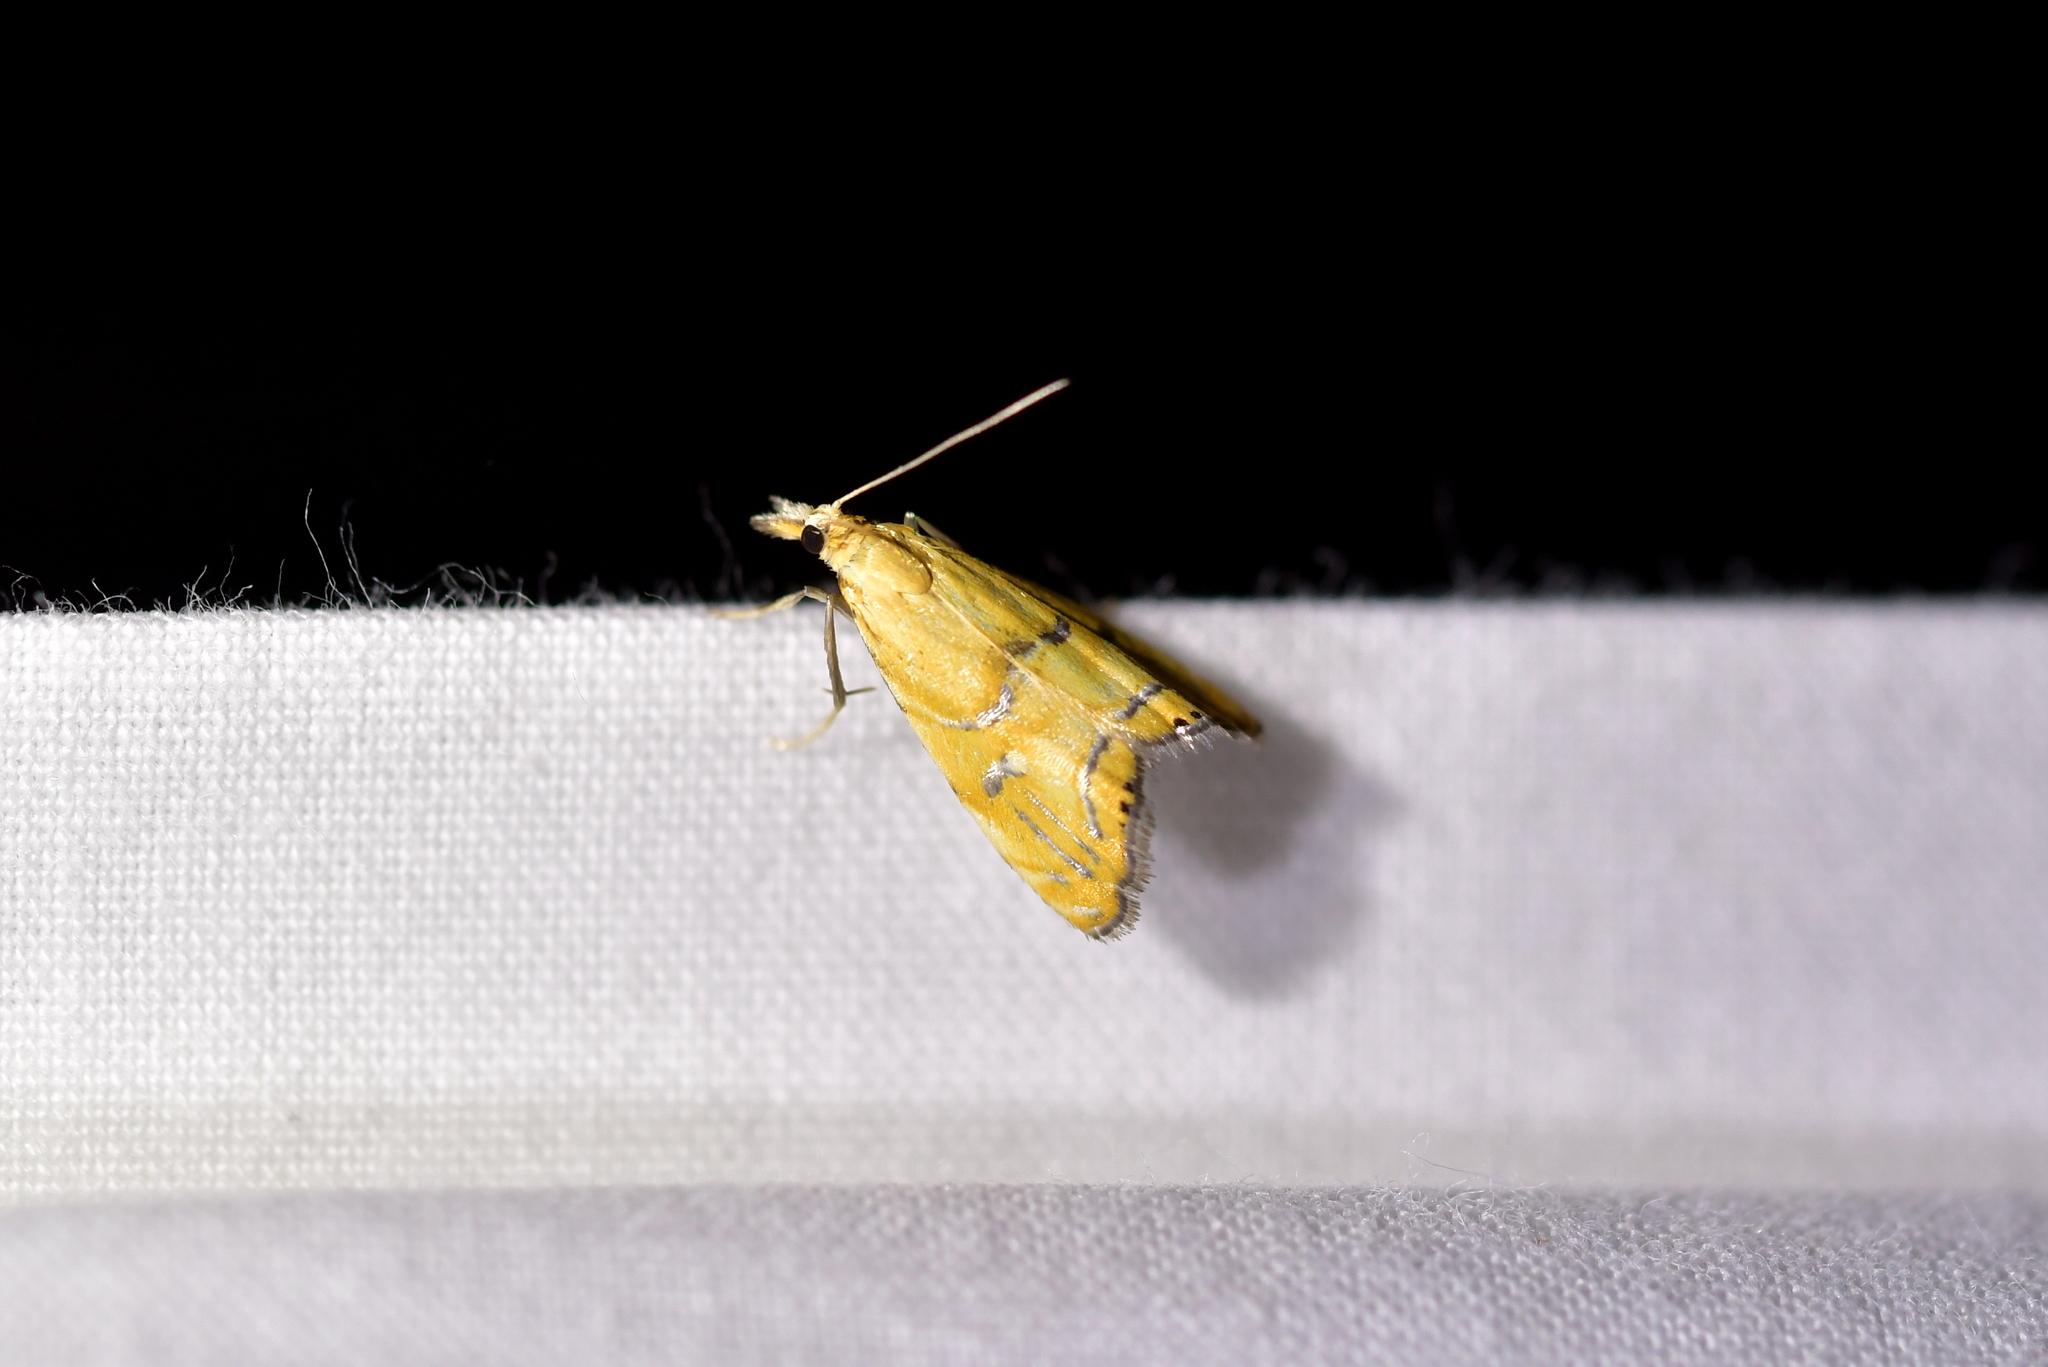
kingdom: Animalia
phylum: Arthropoda
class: Insecta
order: Lepidoptera
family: Crambidae
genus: Glaucocharis
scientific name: Glaucocharis auriscriptella
